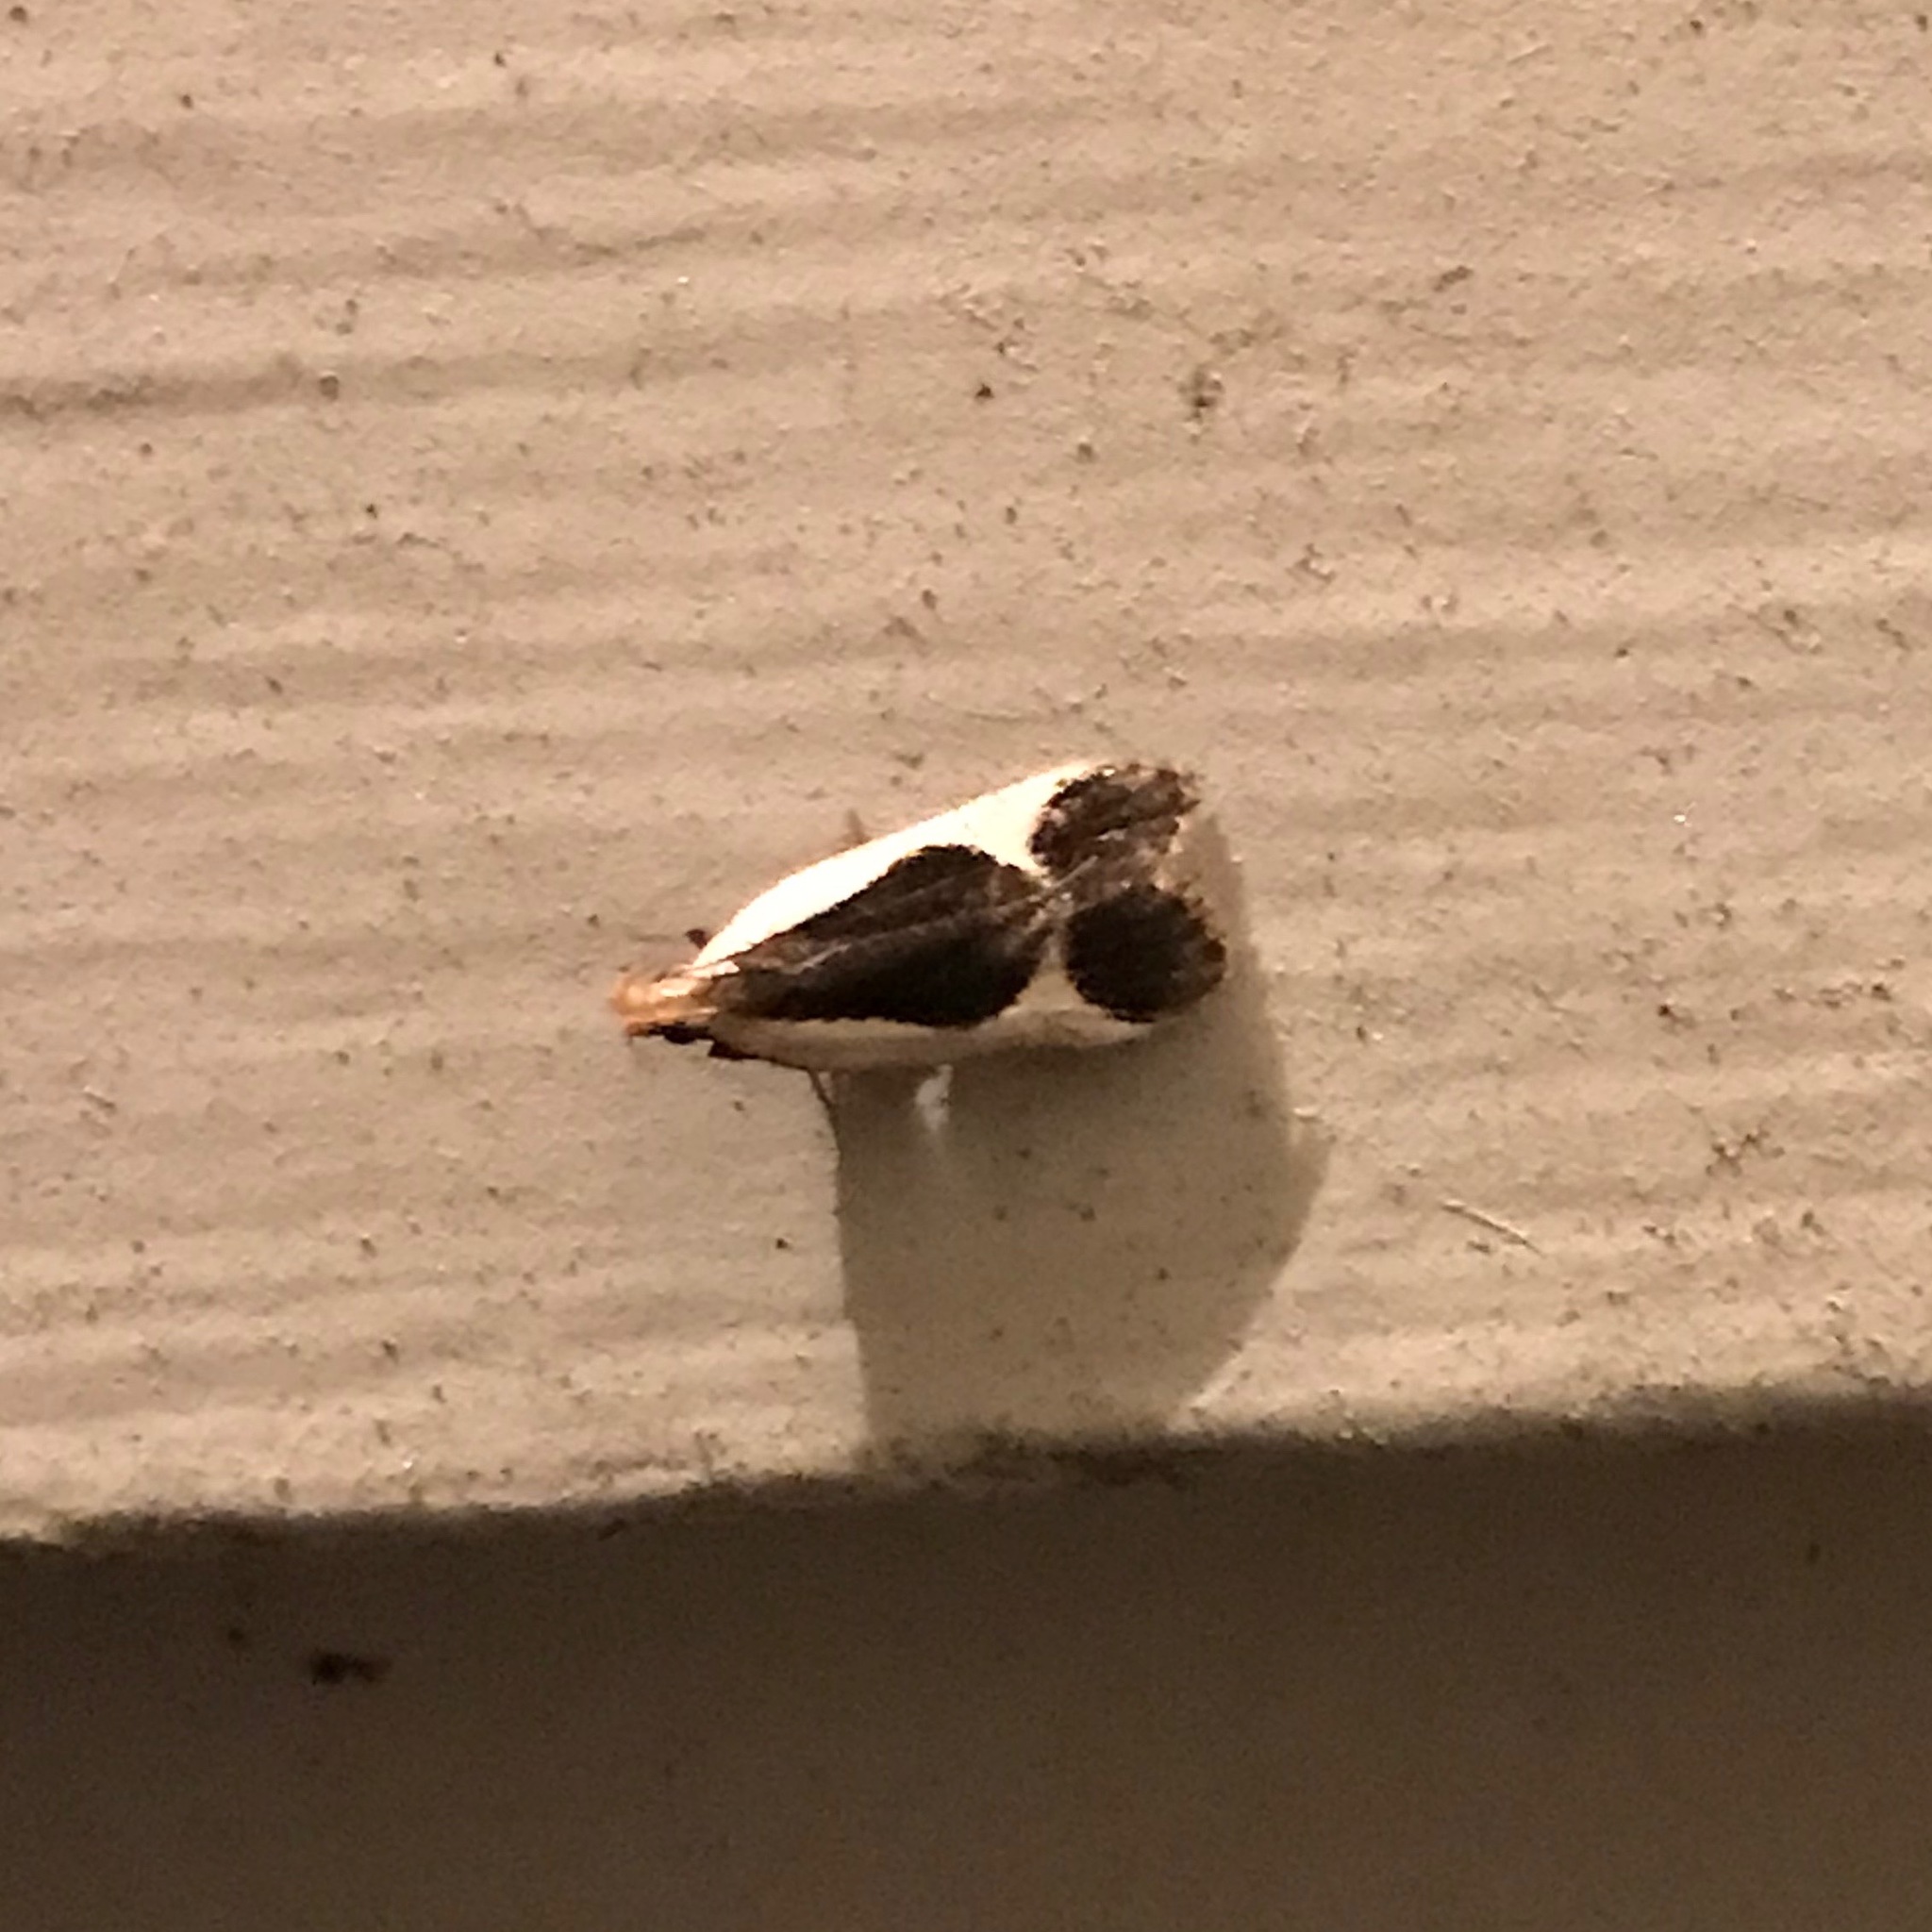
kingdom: Animalia
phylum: Arthropoda
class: Insecta
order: Lepidoptera
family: Gelechiidae
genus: Dichomeris
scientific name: Dichomeris flavocostella
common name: Cream-edged dichomeris moth
